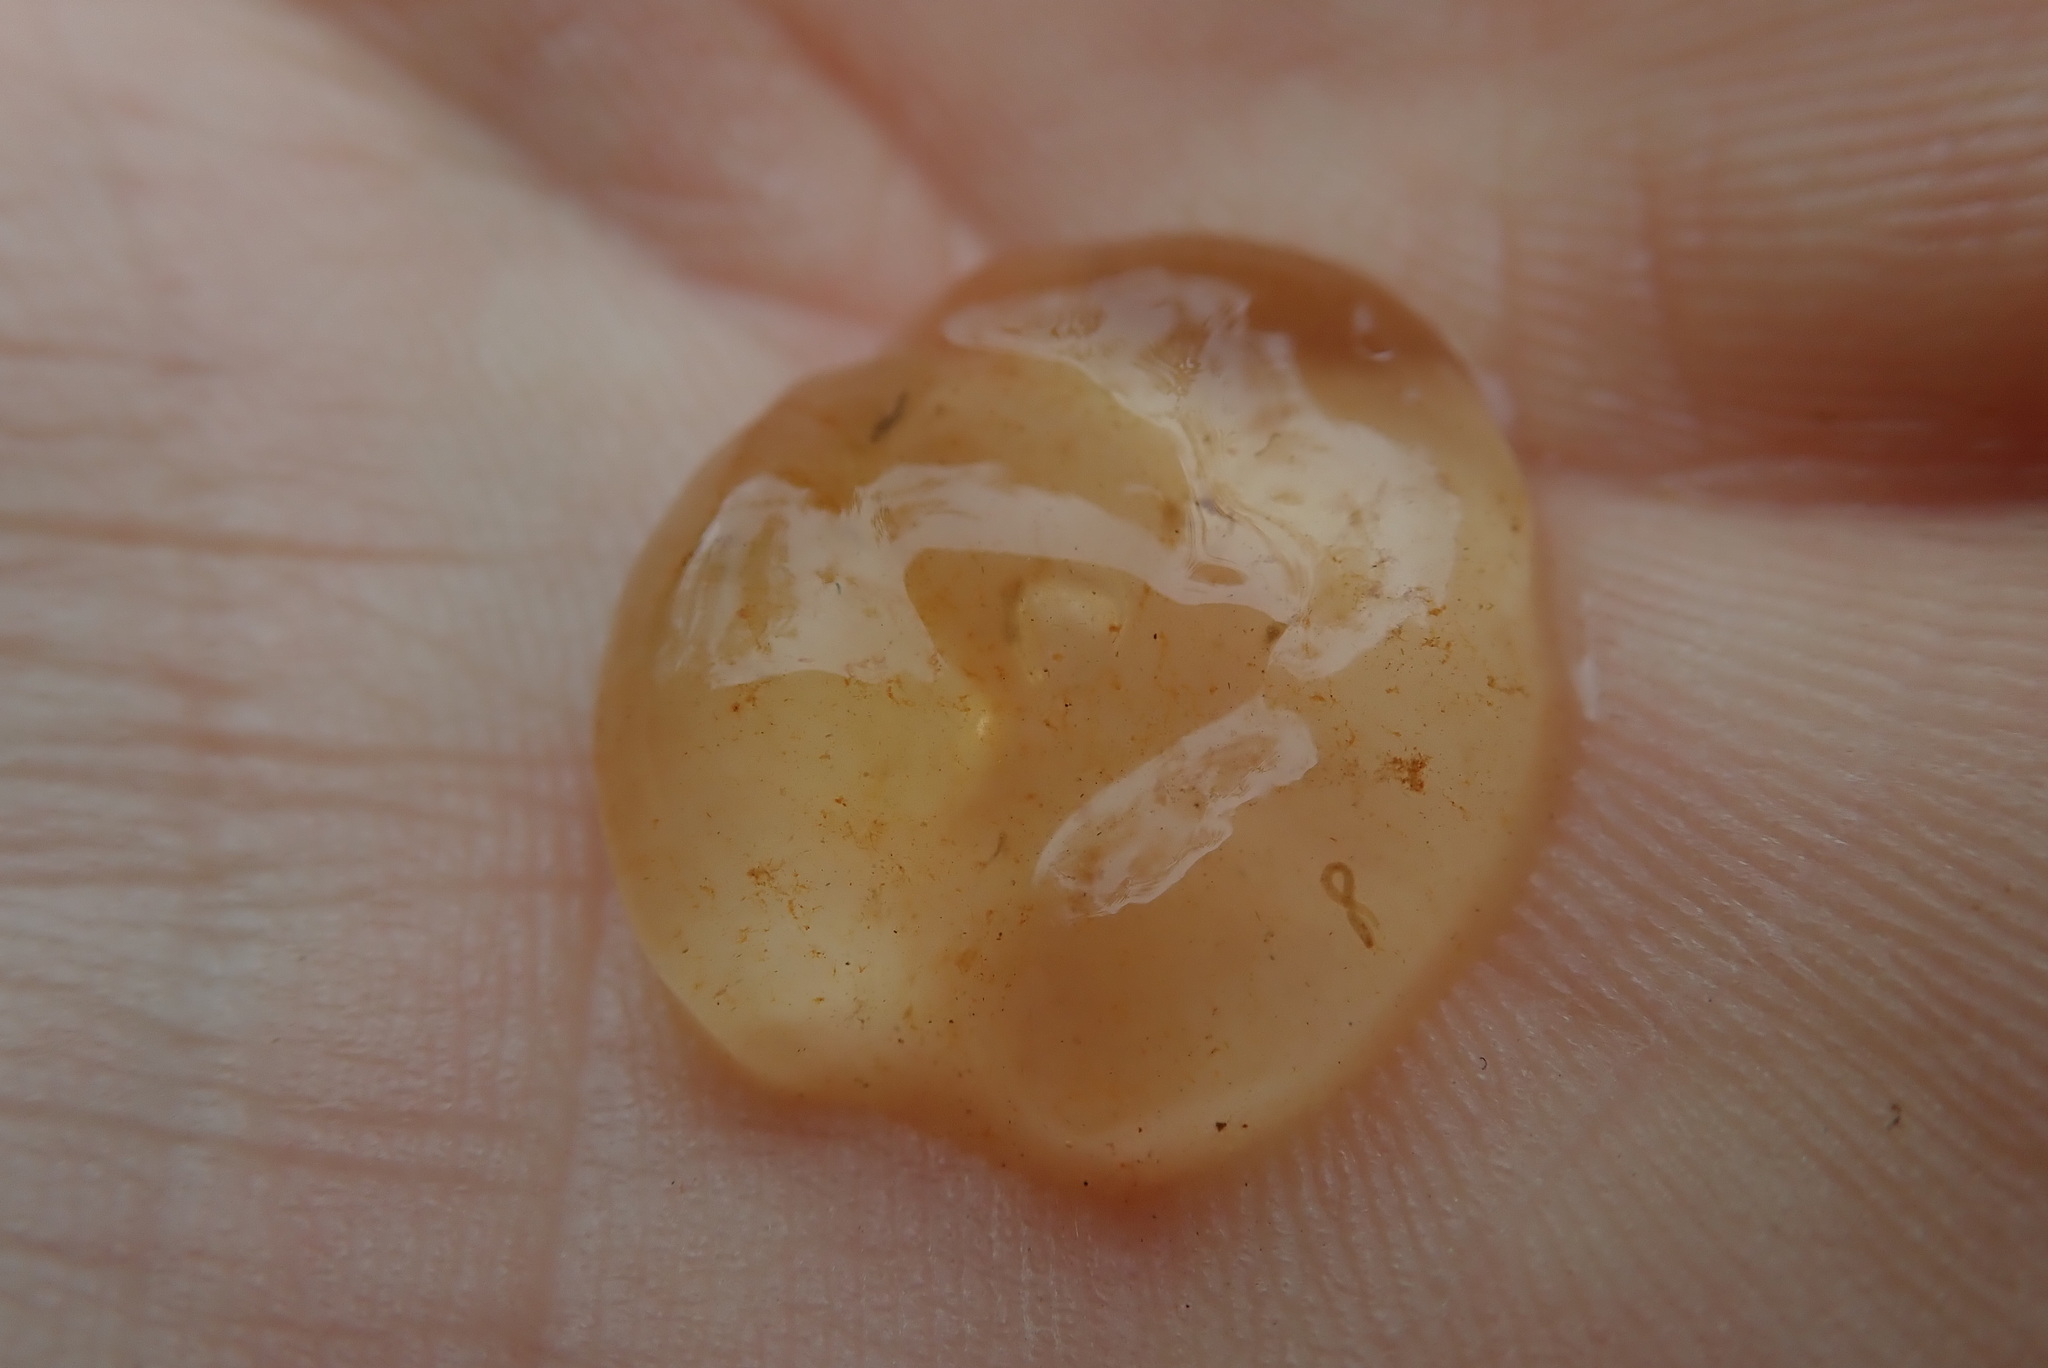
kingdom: Chromista
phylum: Ciliophora
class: Oligohymenophorea
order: Peritrichida
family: Ophrydiidae
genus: Ophrydium
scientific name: Ophrydium
